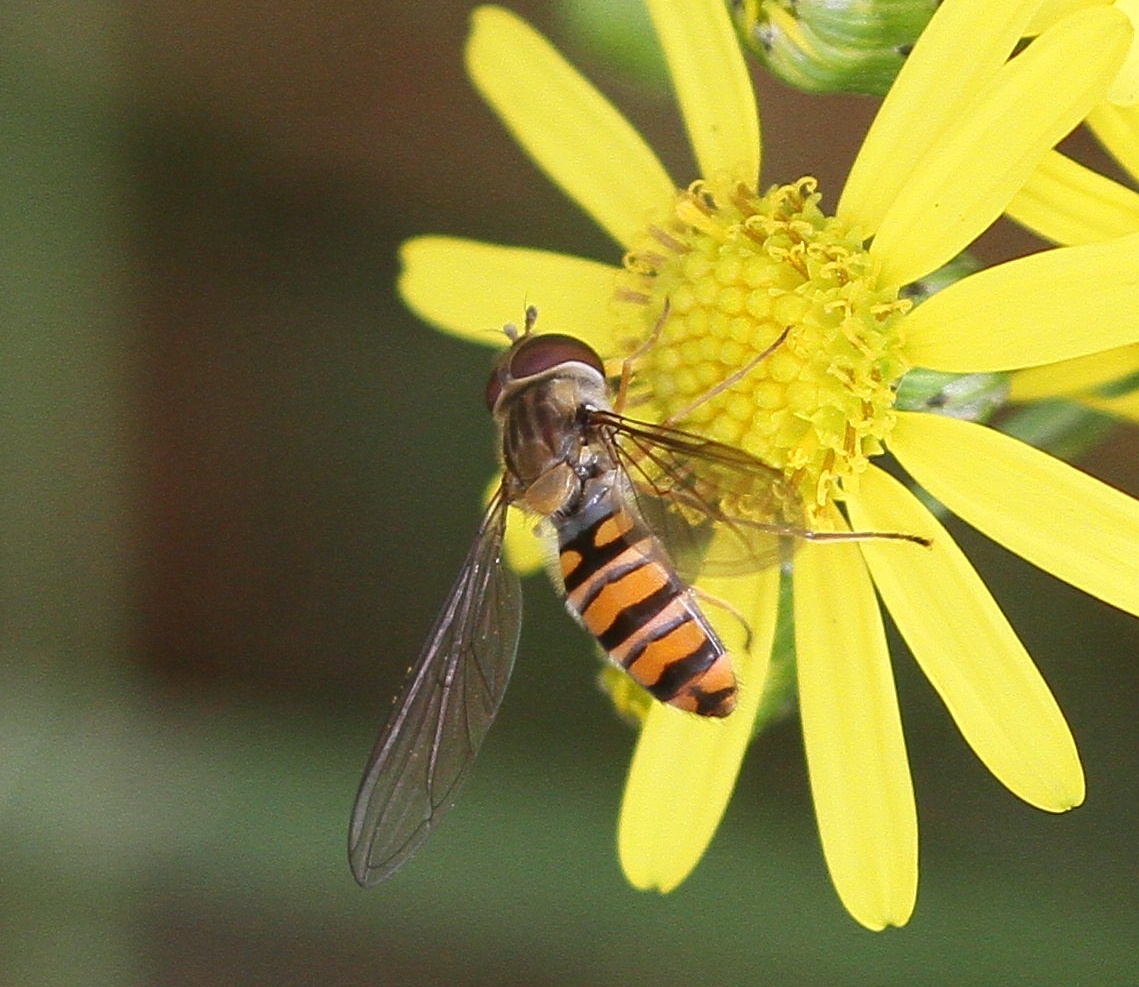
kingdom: Animalia
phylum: Arthropoda
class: Insecta
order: Diptera
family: Syrphidae
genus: Episyrphus
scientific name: Episyrphus balteatus
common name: Marmalade hoverfly
